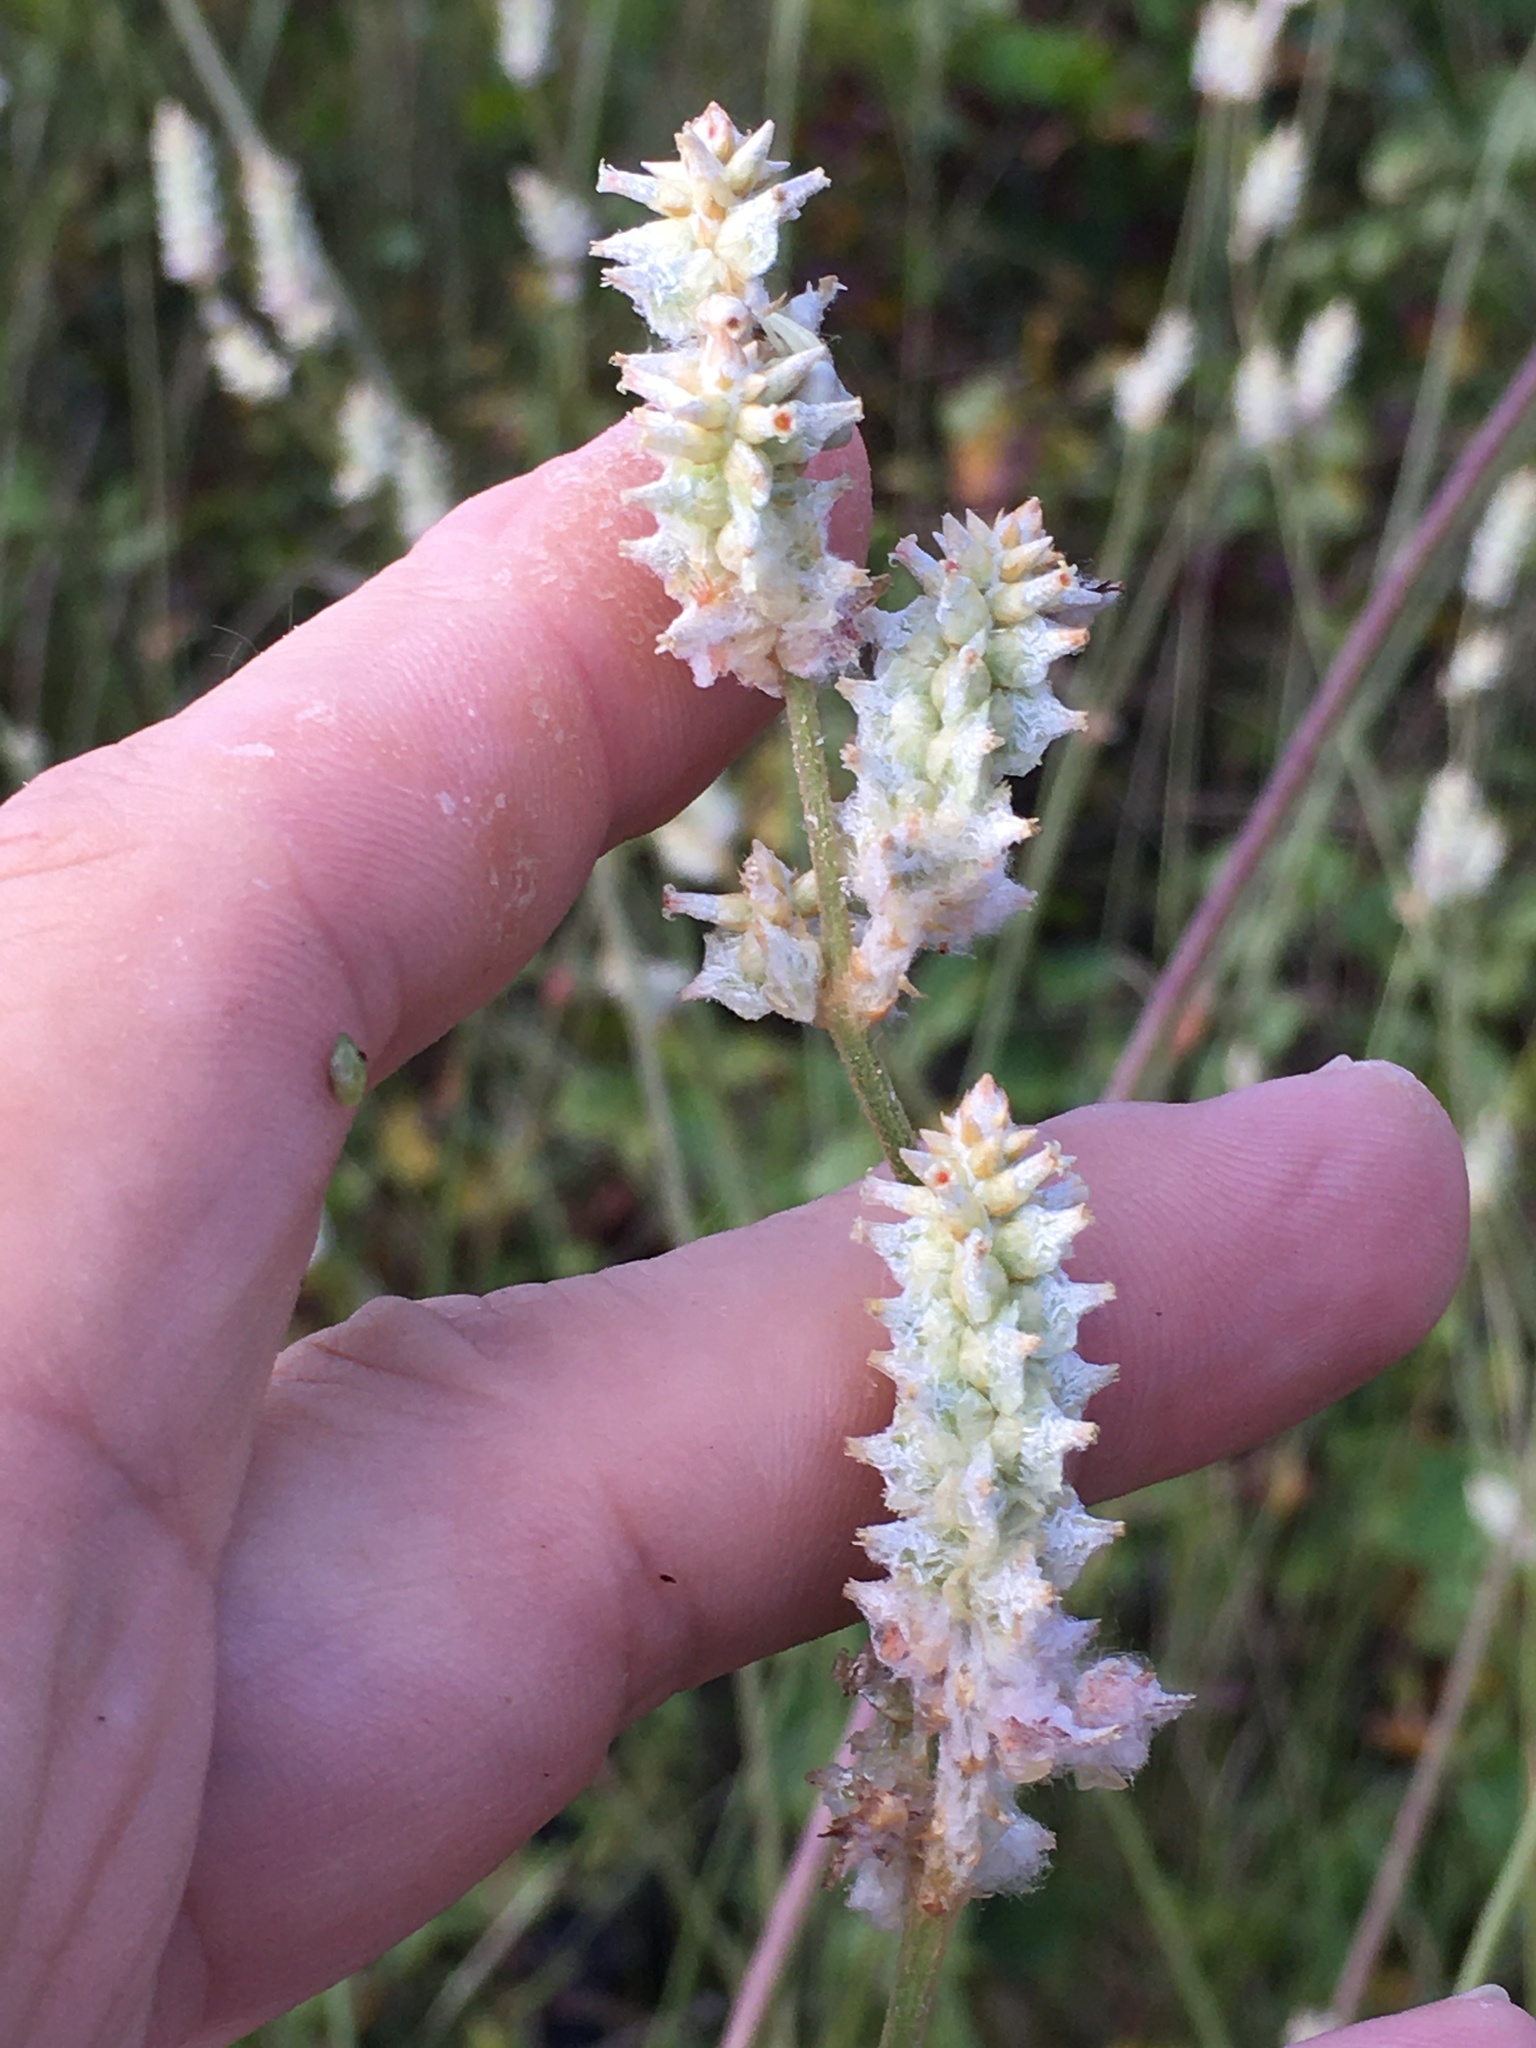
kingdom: Plantae
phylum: Tracheophyta
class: Magnoliopsida
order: Caryophyllales
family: Amaranthaceae
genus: Froelichia
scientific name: Froelichia floridana
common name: Florida snake-cotton
